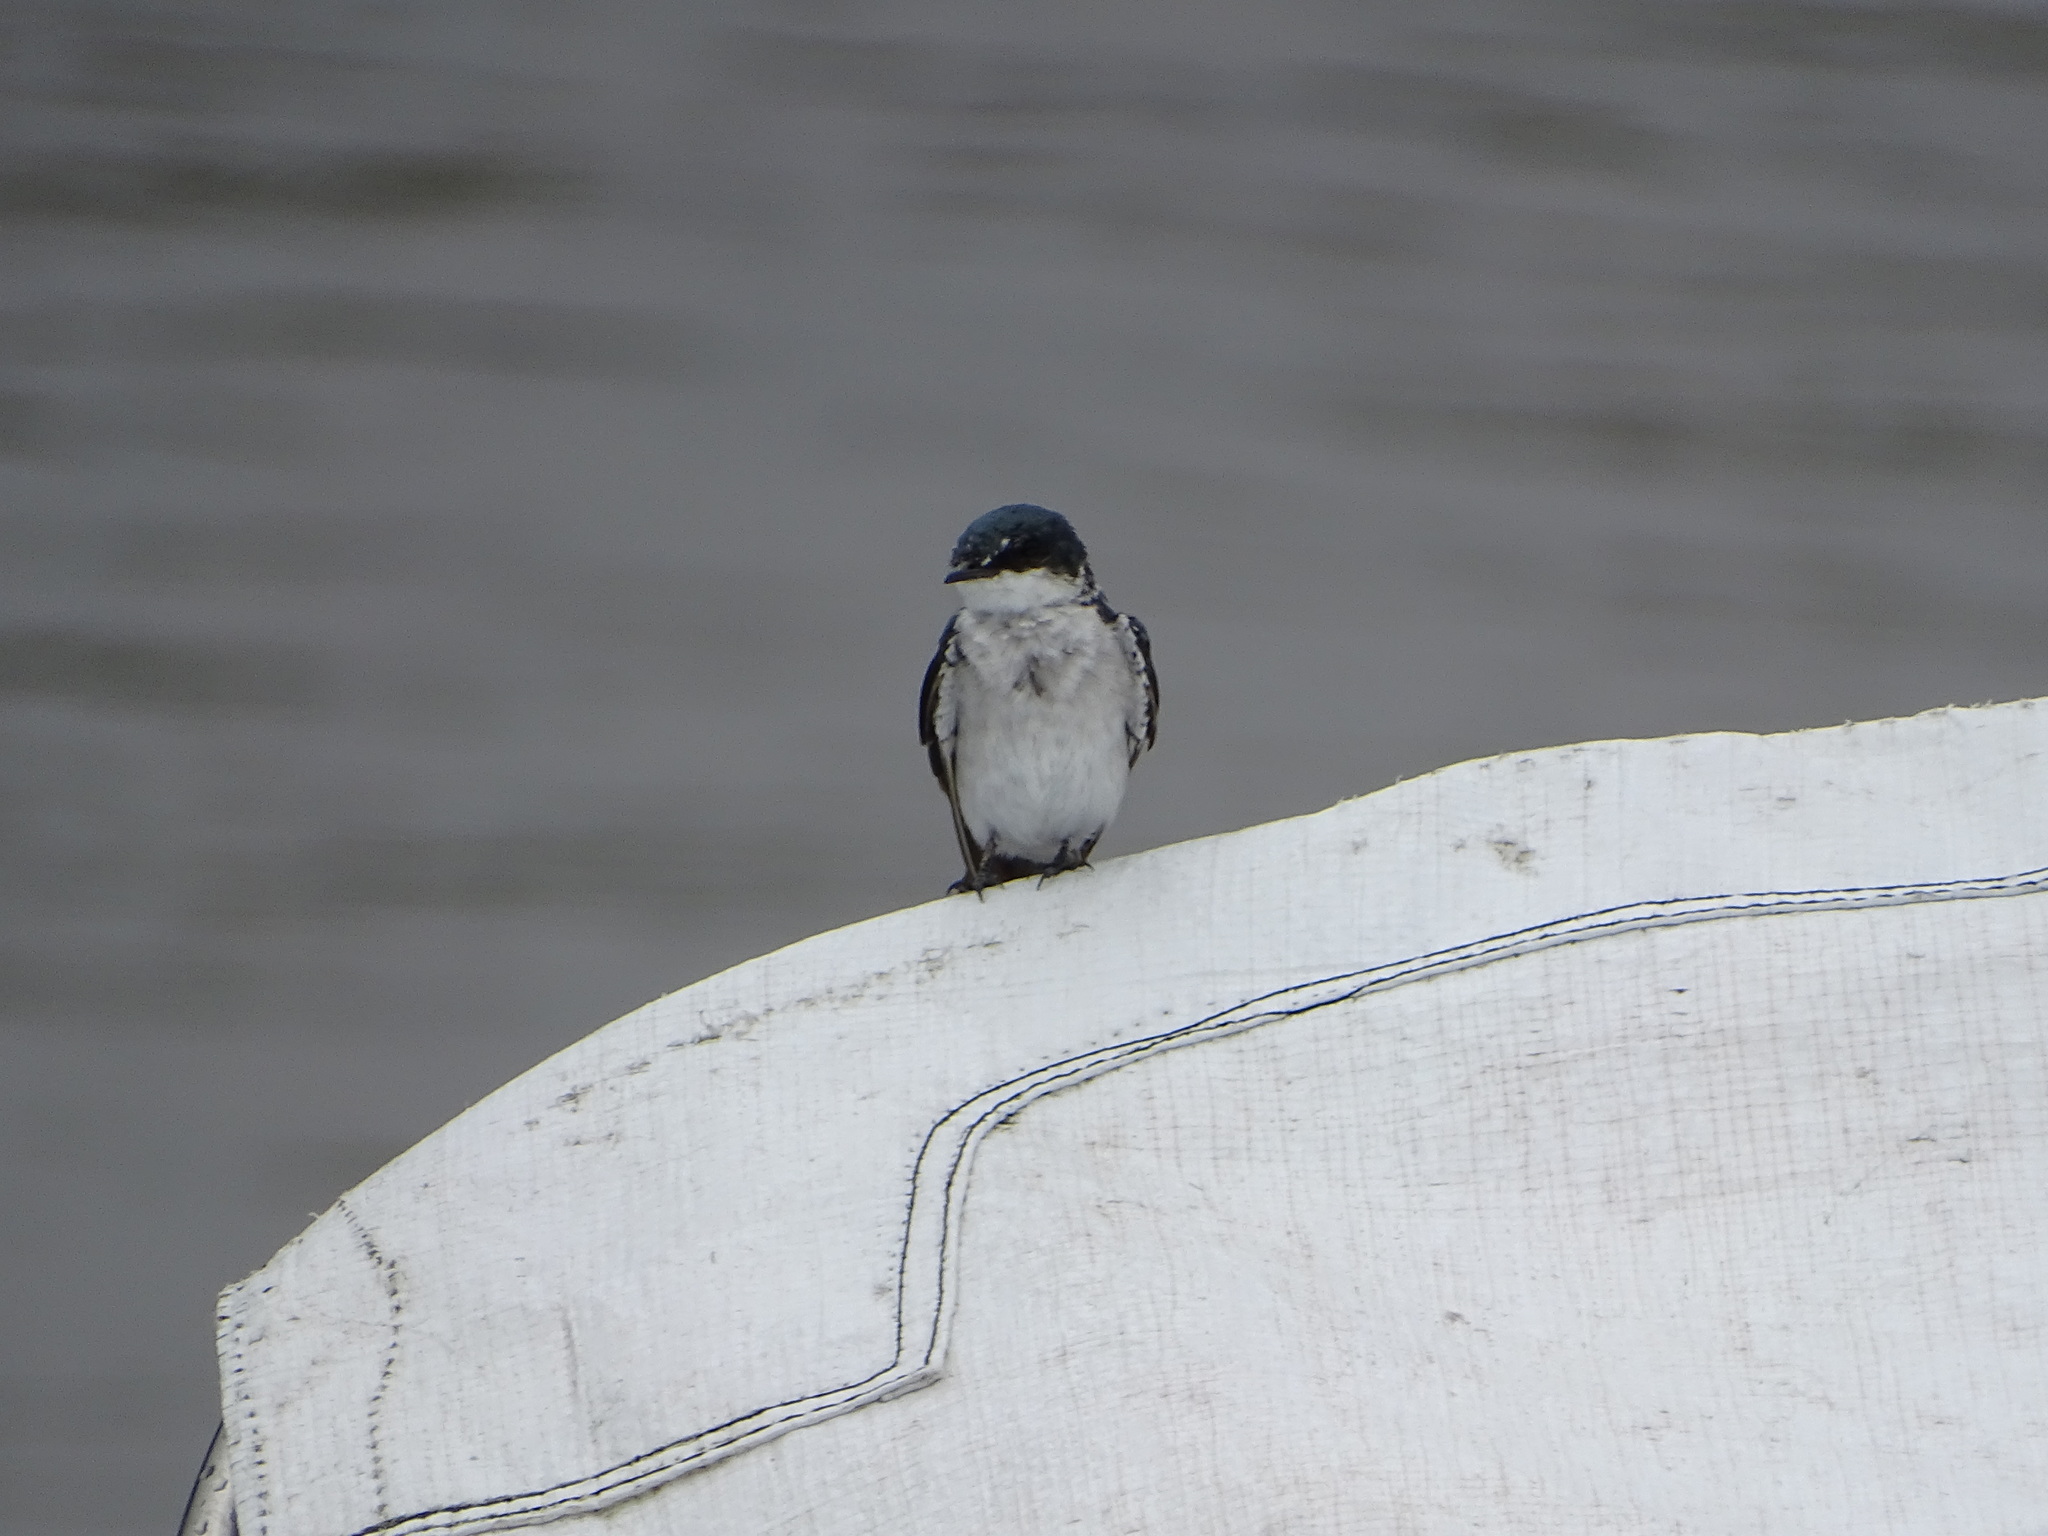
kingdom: Animalia
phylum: Chordata
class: Aves
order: Passeriformes
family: Hirundinidae
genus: Tachycineta
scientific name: Tachycineta albilinea
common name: Mangrove swallow
